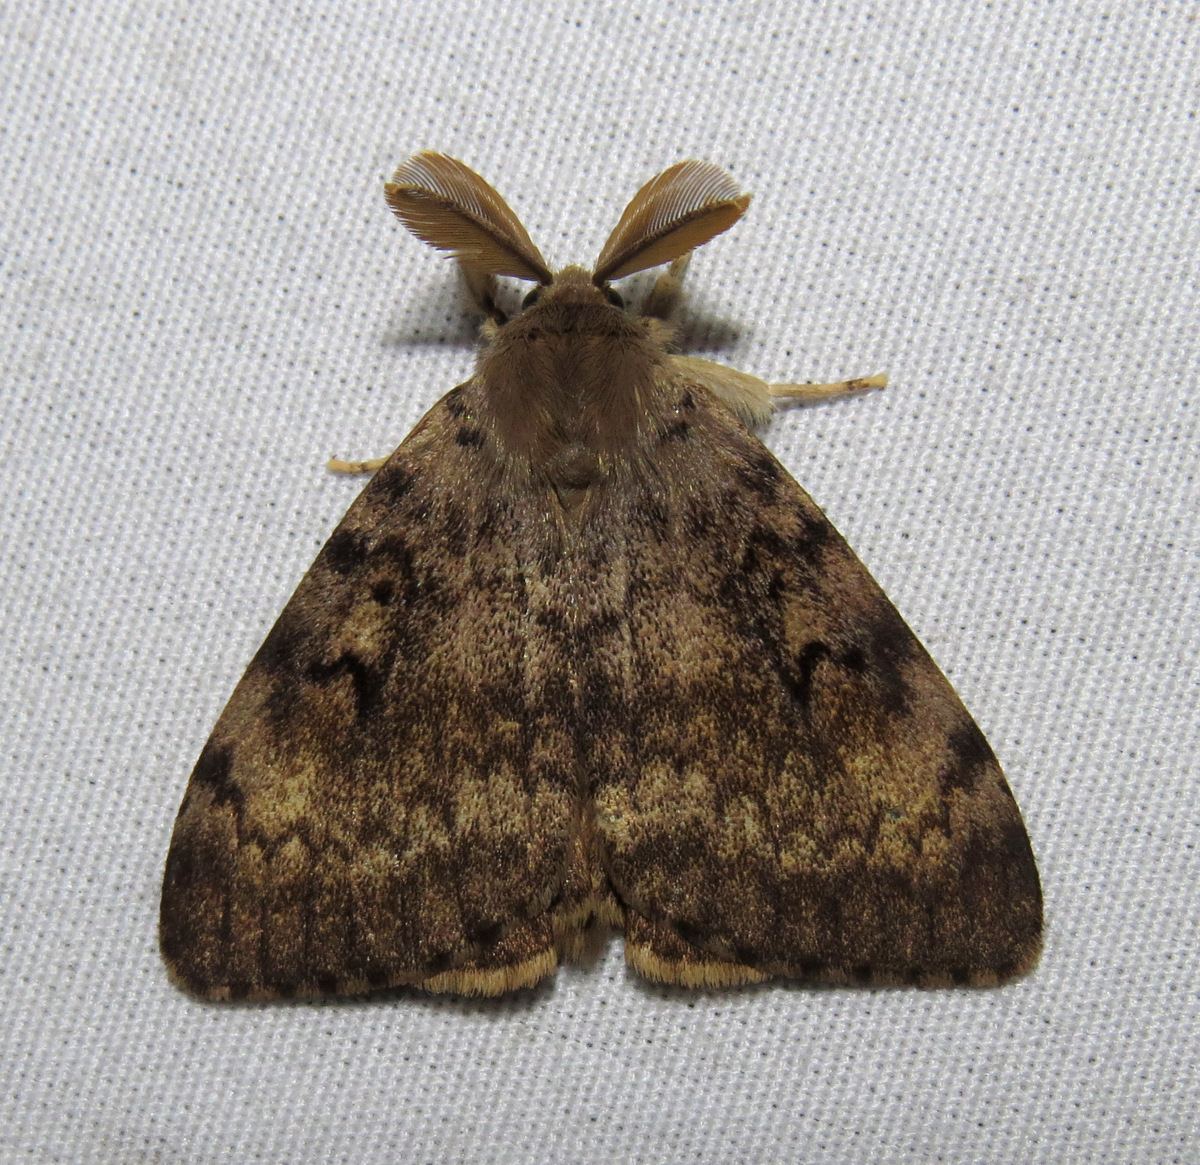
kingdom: Animalia
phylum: Arthropoda
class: Insecta
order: Lepidoptera
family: Erebidae
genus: Lymantria
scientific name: Lymantria dispar
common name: Gypsy moth
